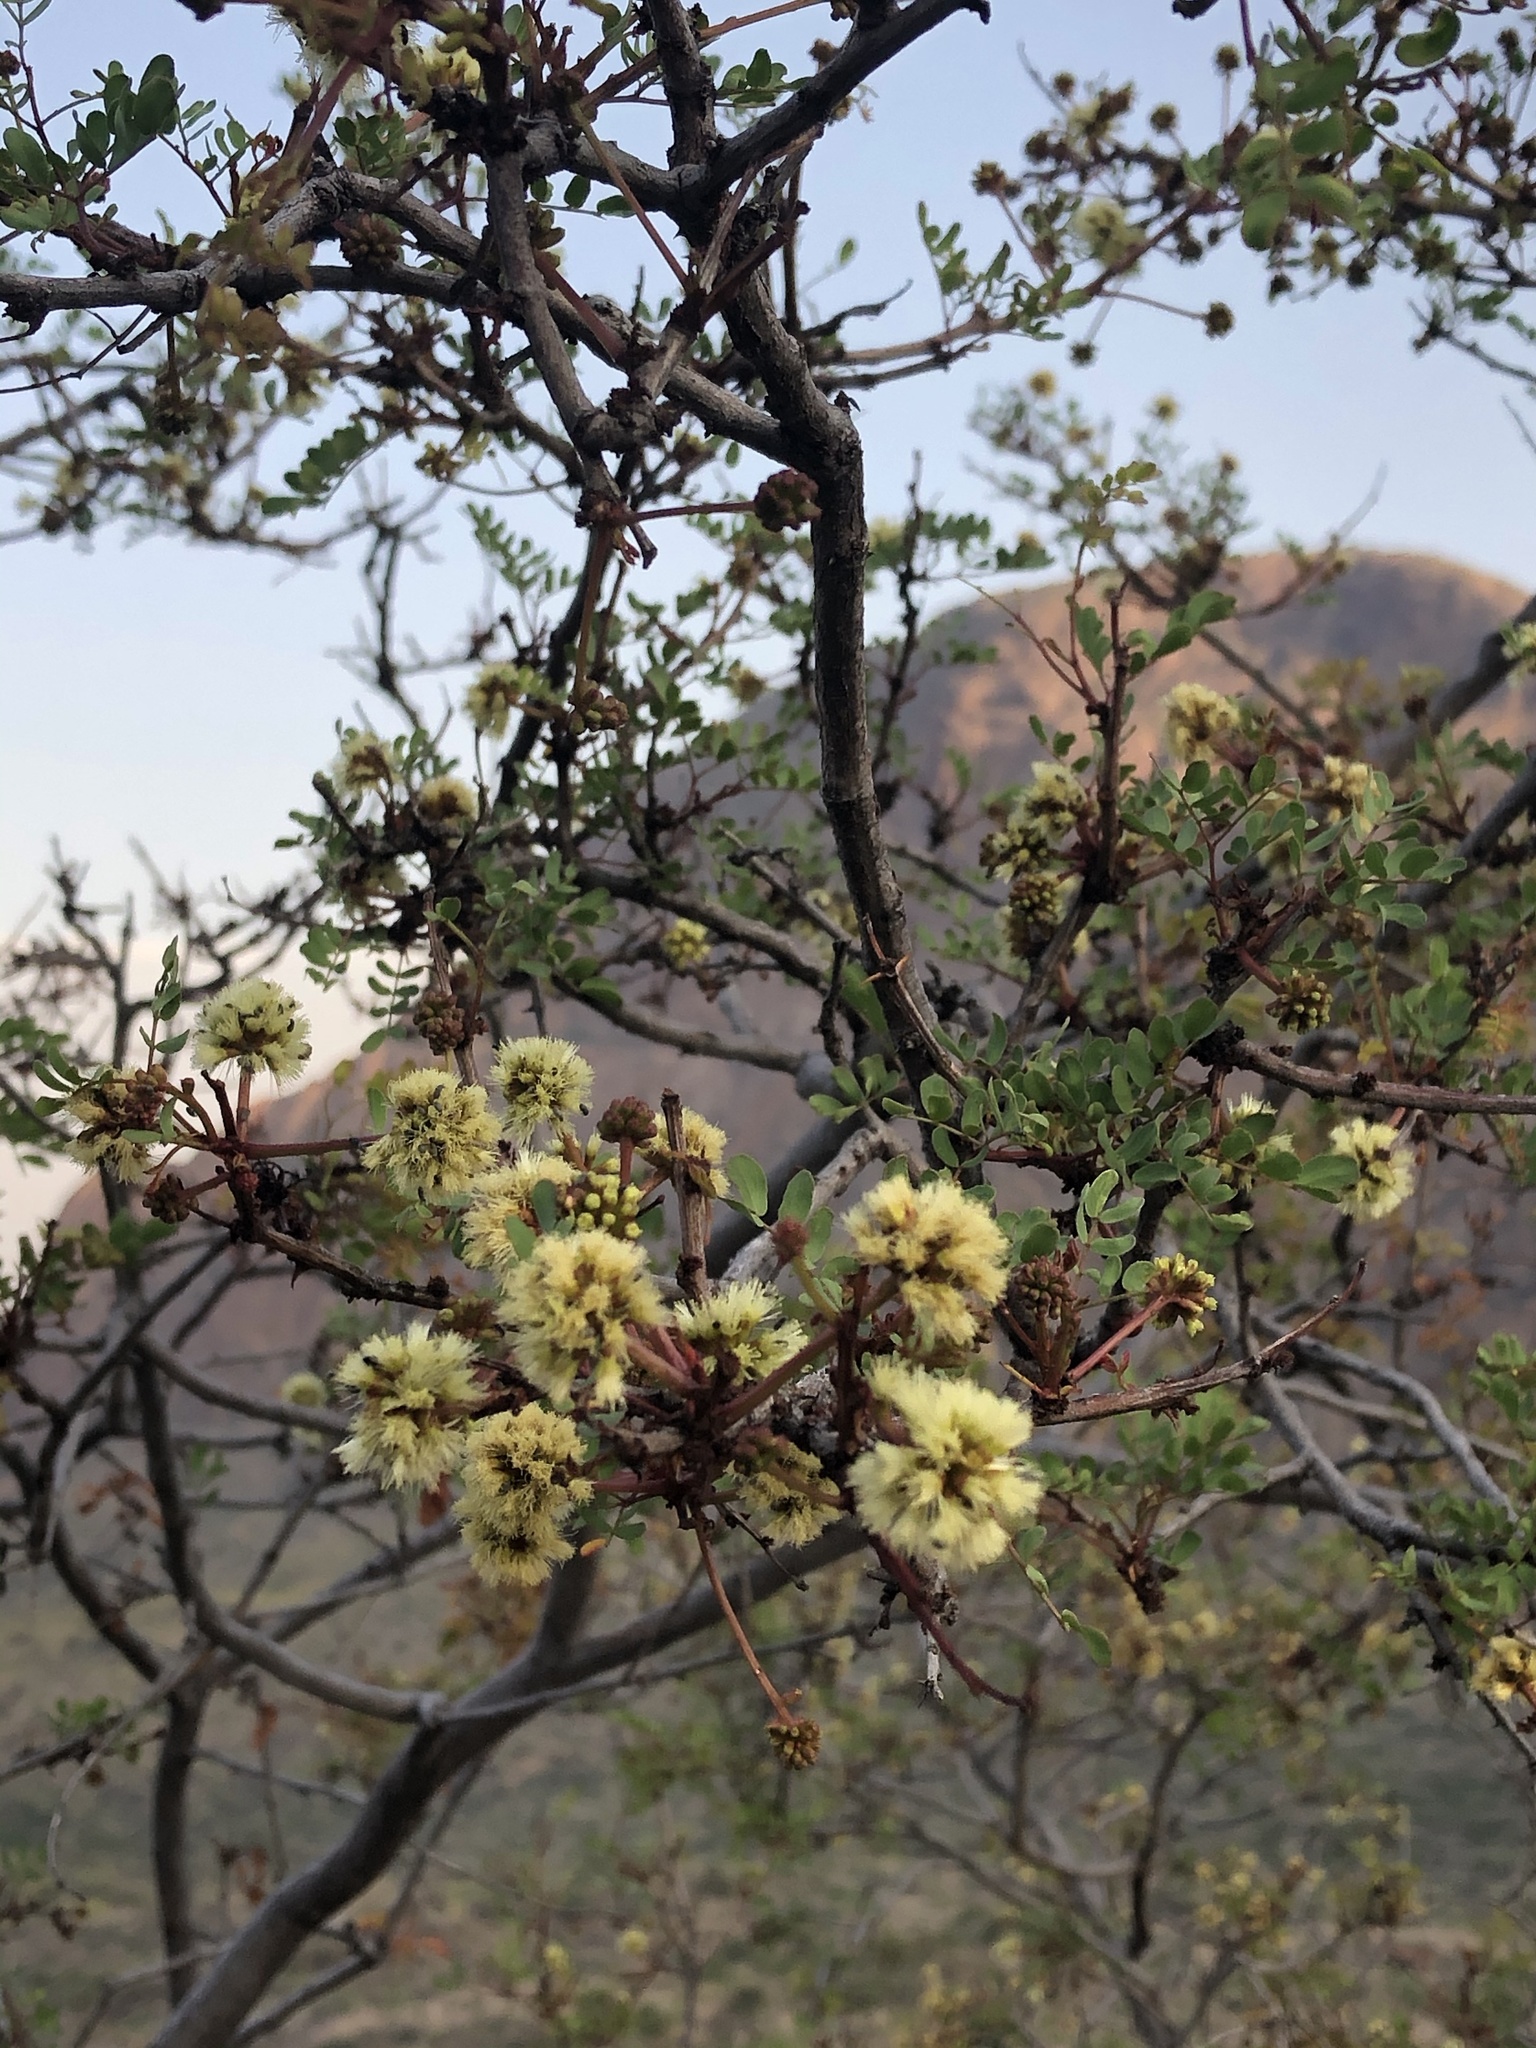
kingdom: Plantae
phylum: Tracheophyta
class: Magnoliopsida
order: Fabales
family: Fabaceae
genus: Senegalia
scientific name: Senegalia roemeriana
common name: Roemer's acacia
